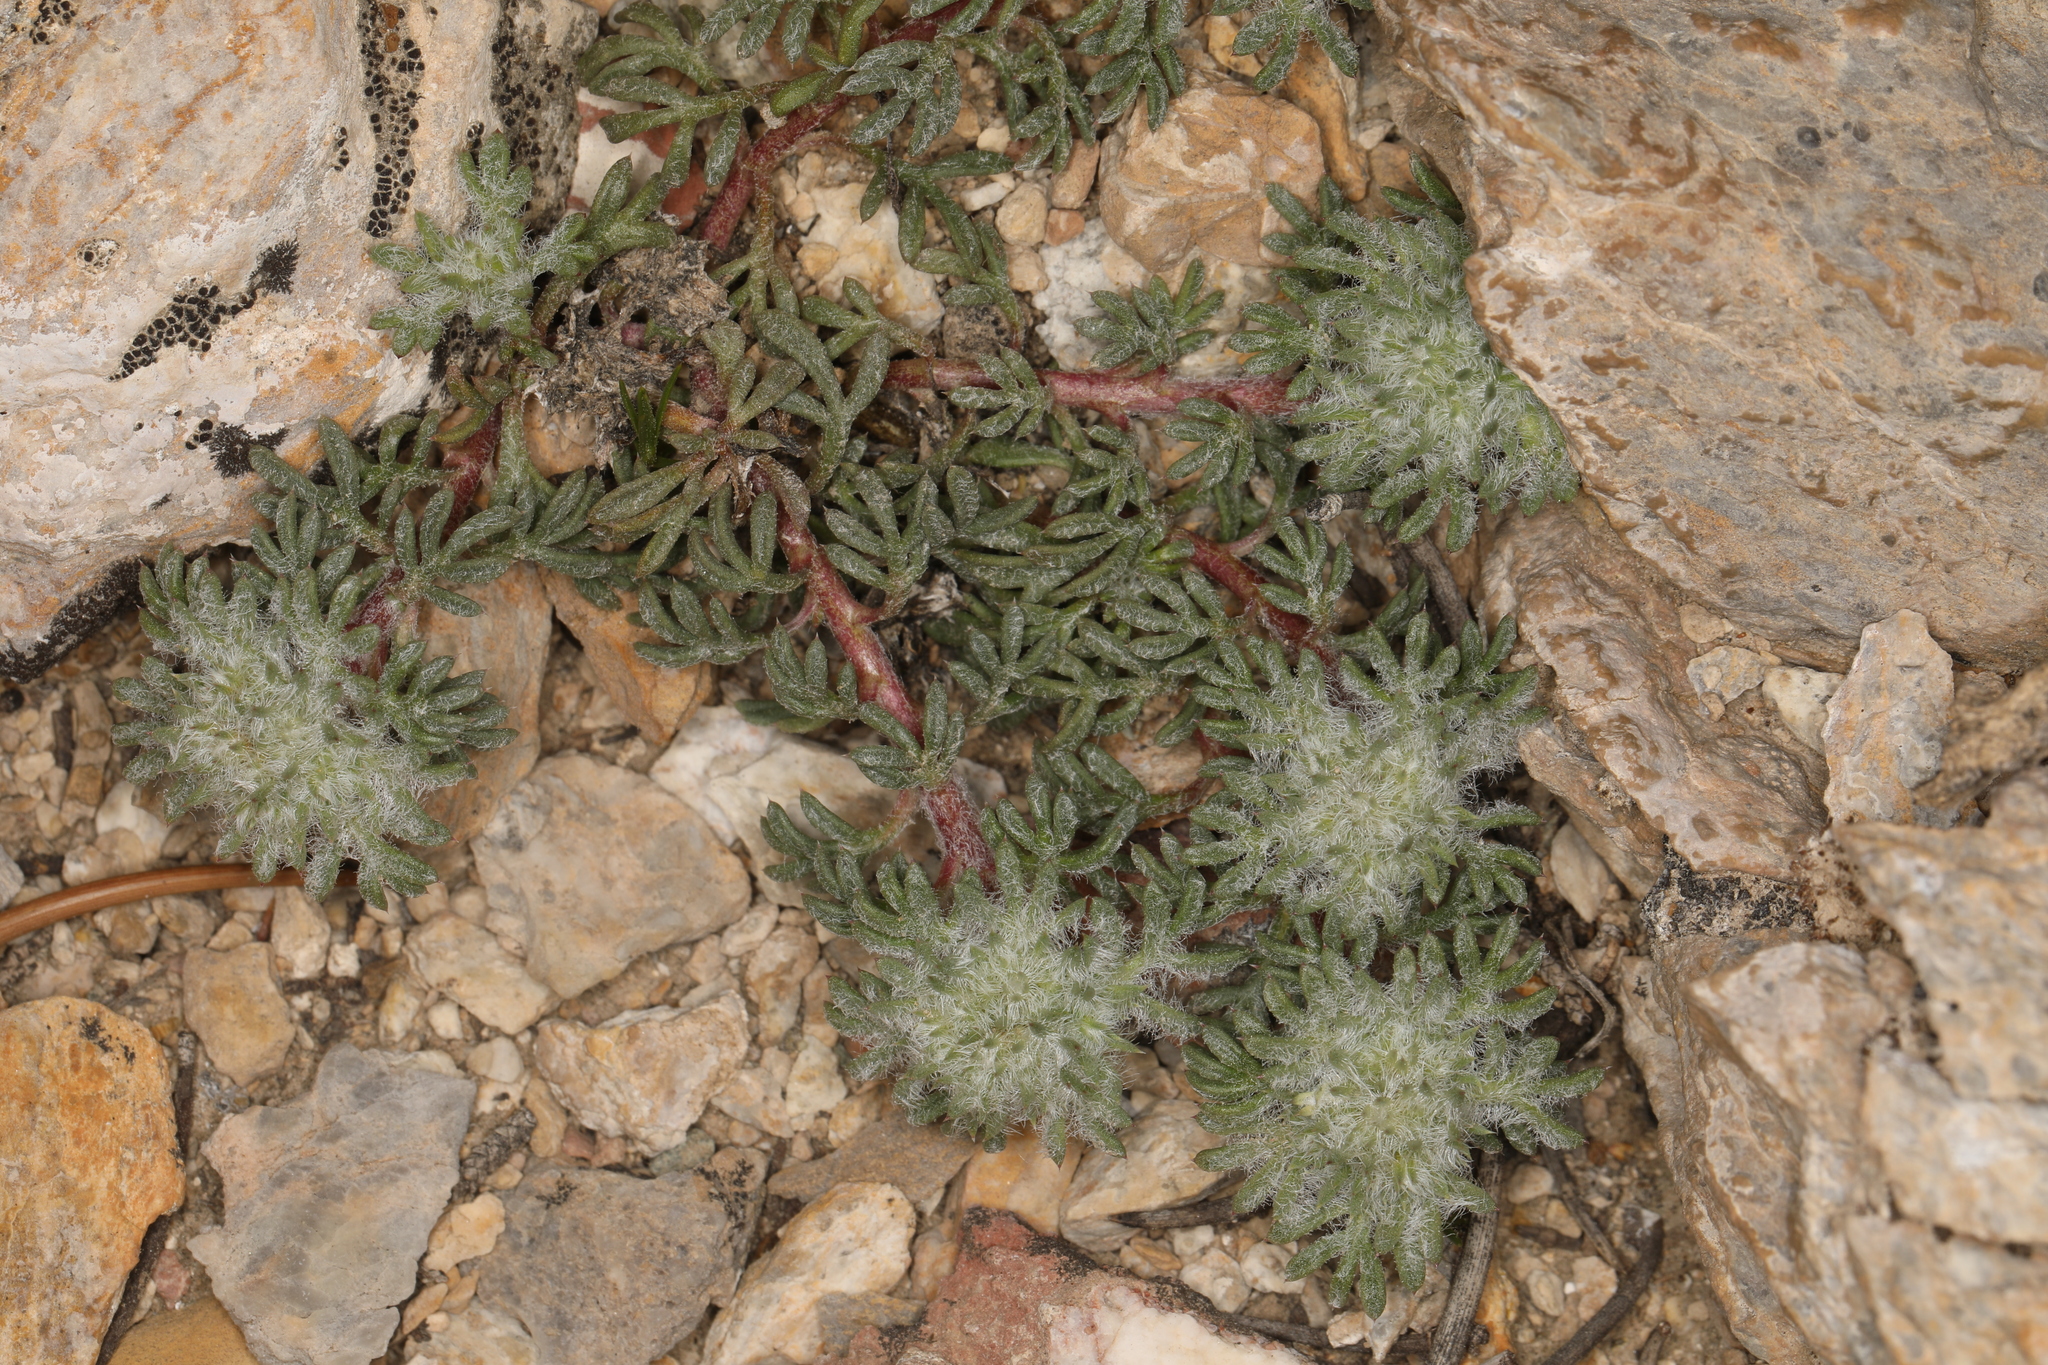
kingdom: Plantae
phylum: Tracheophyta
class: Magnoliopsida
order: Ericales
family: Polemoniaceae
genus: Ipomopsis
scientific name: Ipomopsis congesta
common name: Ball-head gilia
